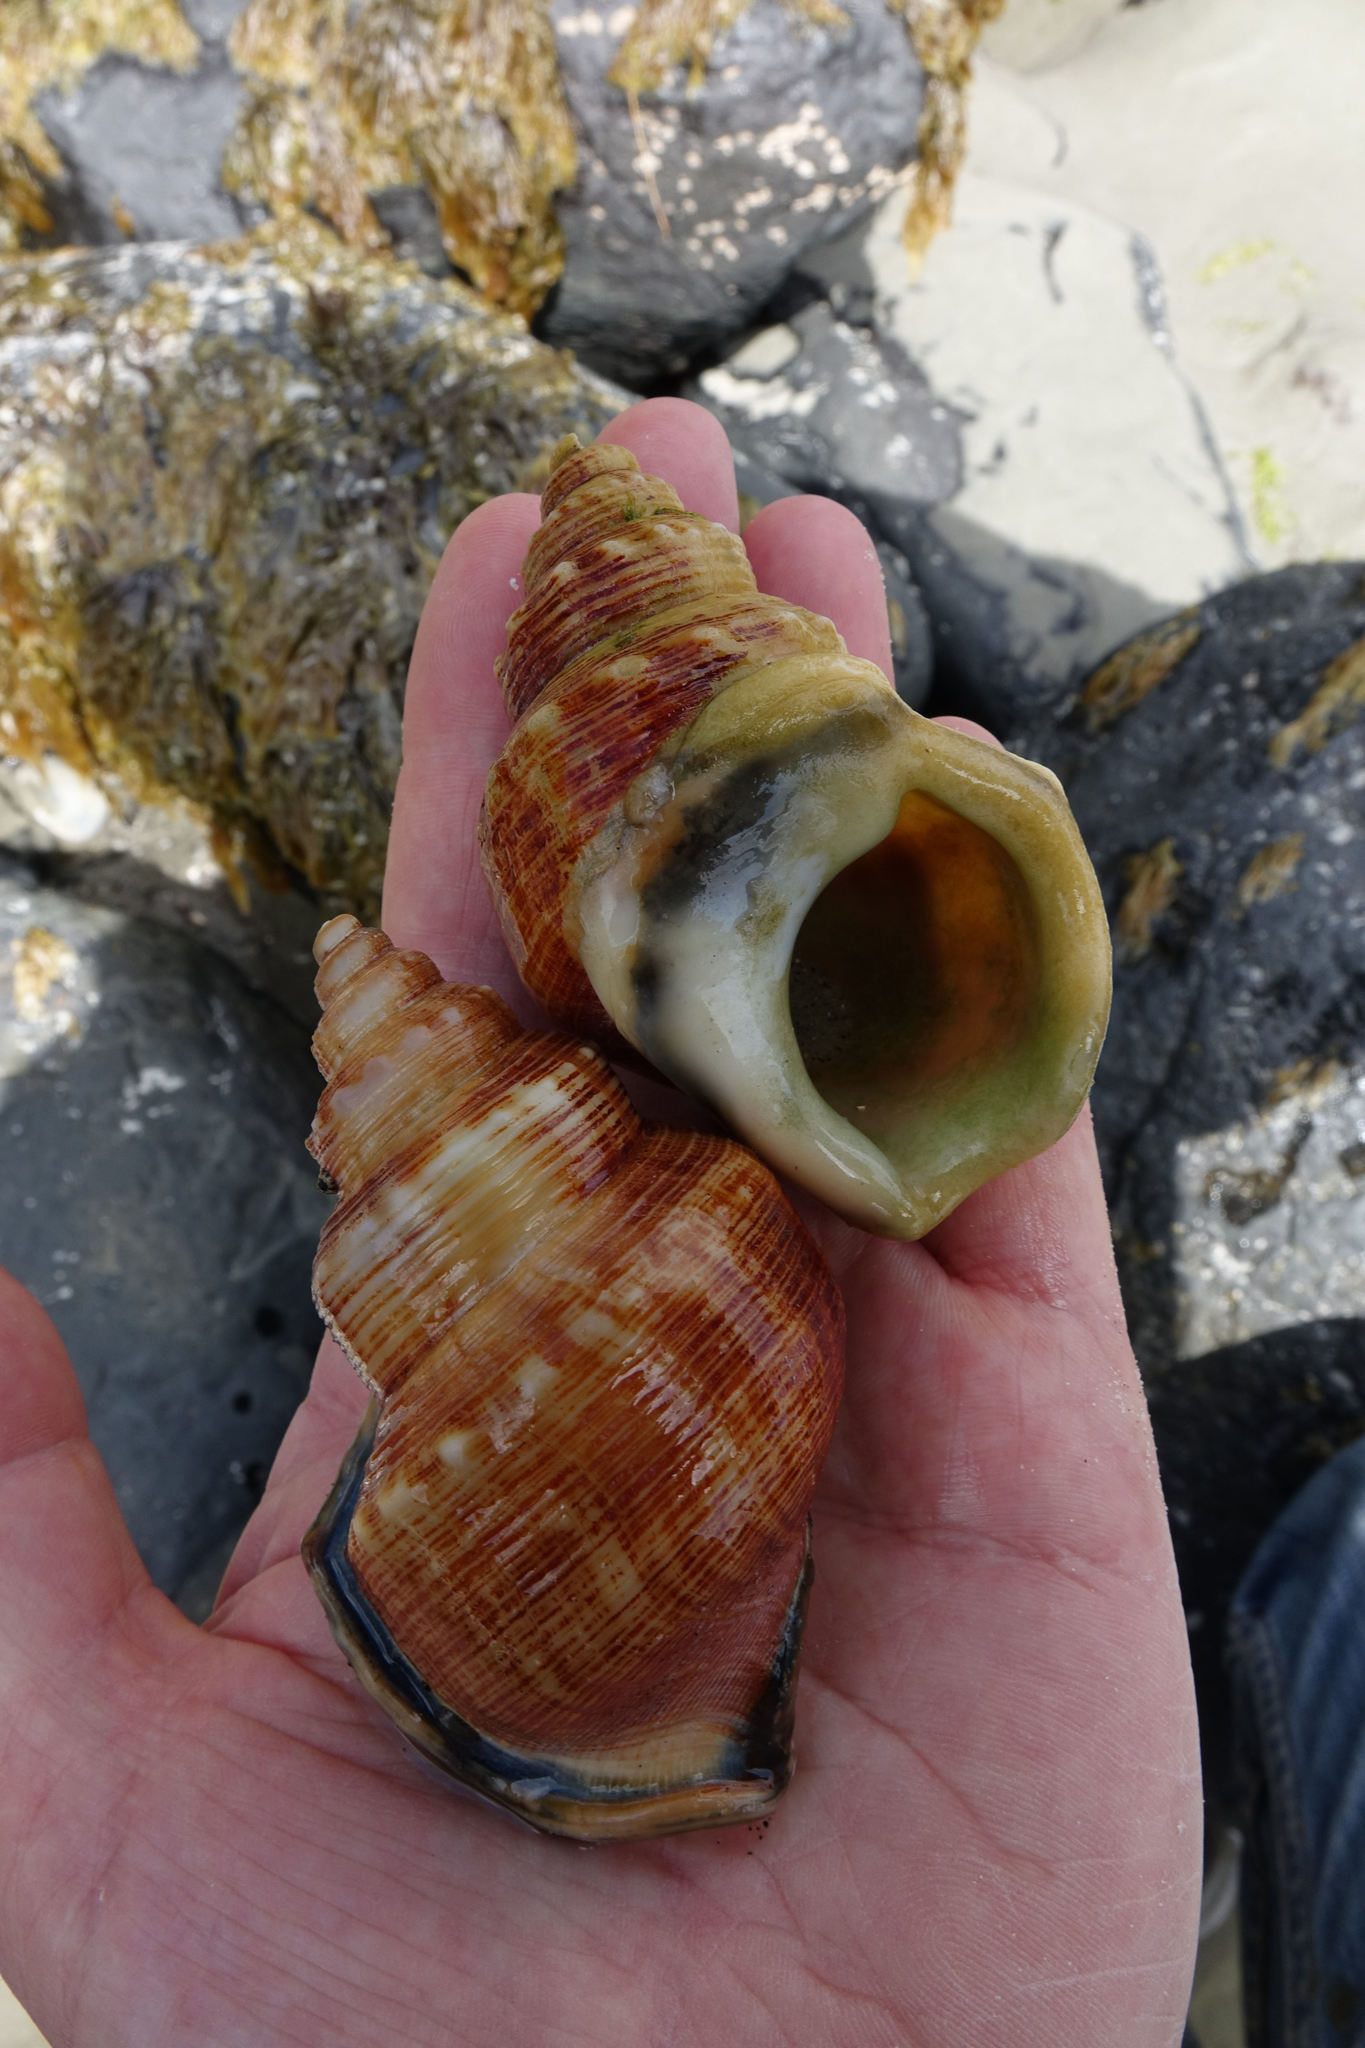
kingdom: Animalia
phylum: Mollusca
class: Gastropoda
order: Littorinimorpha
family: Struthiolariidae
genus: Struthiolaria
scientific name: Struthiolaria papulosa
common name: Large ostrich foot
